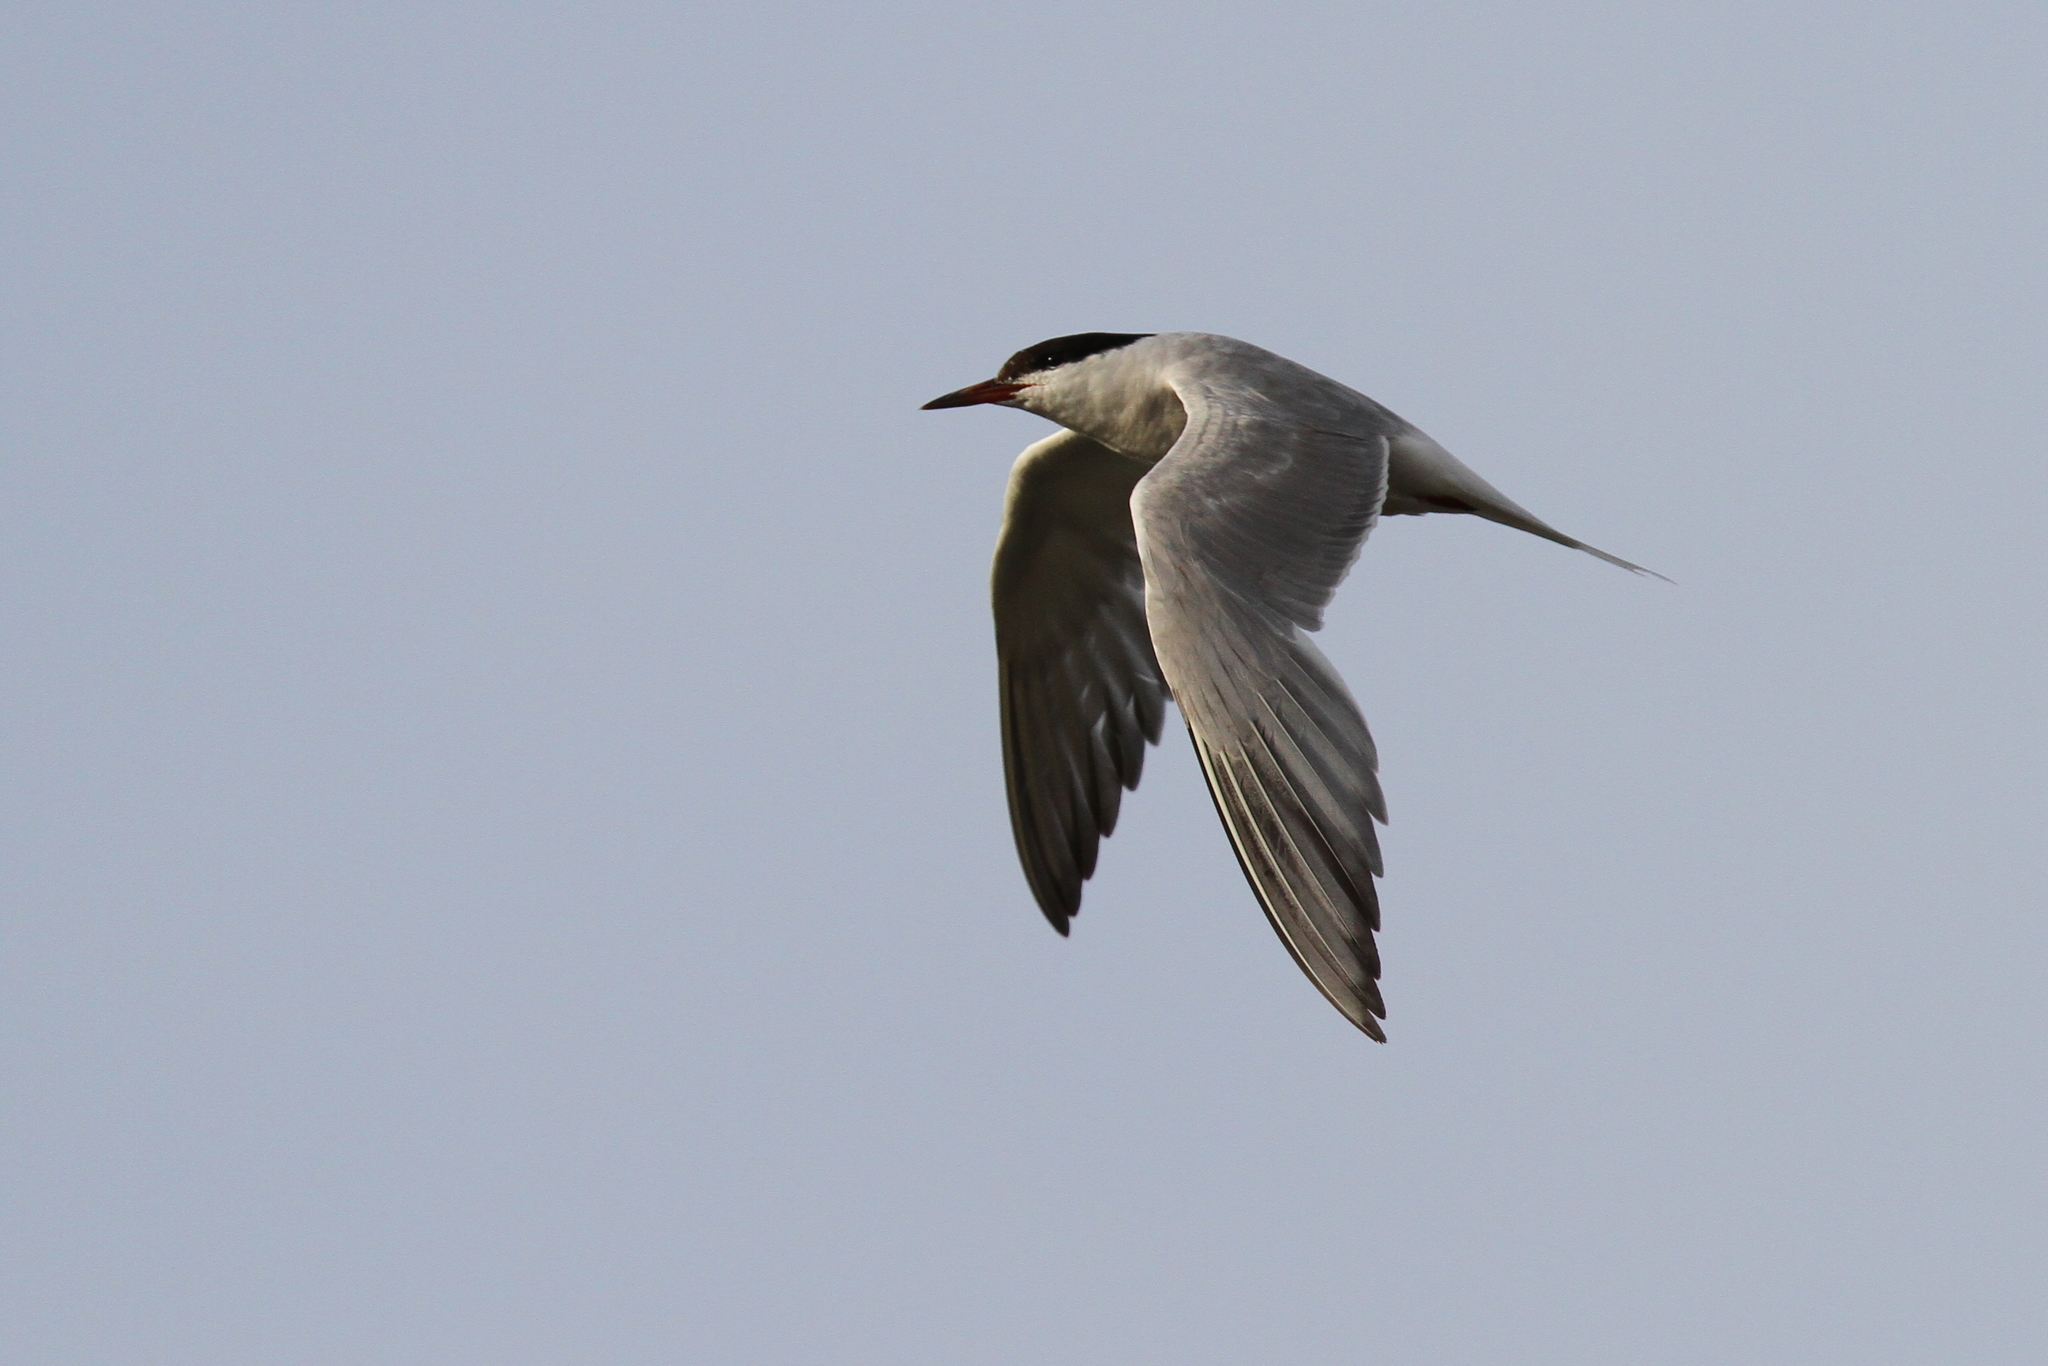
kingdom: Animalia
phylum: Chordata
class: Aves
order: Charadriiformes
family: Laridae
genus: Sterna
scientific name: Sterna hirundo
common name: Common tern
